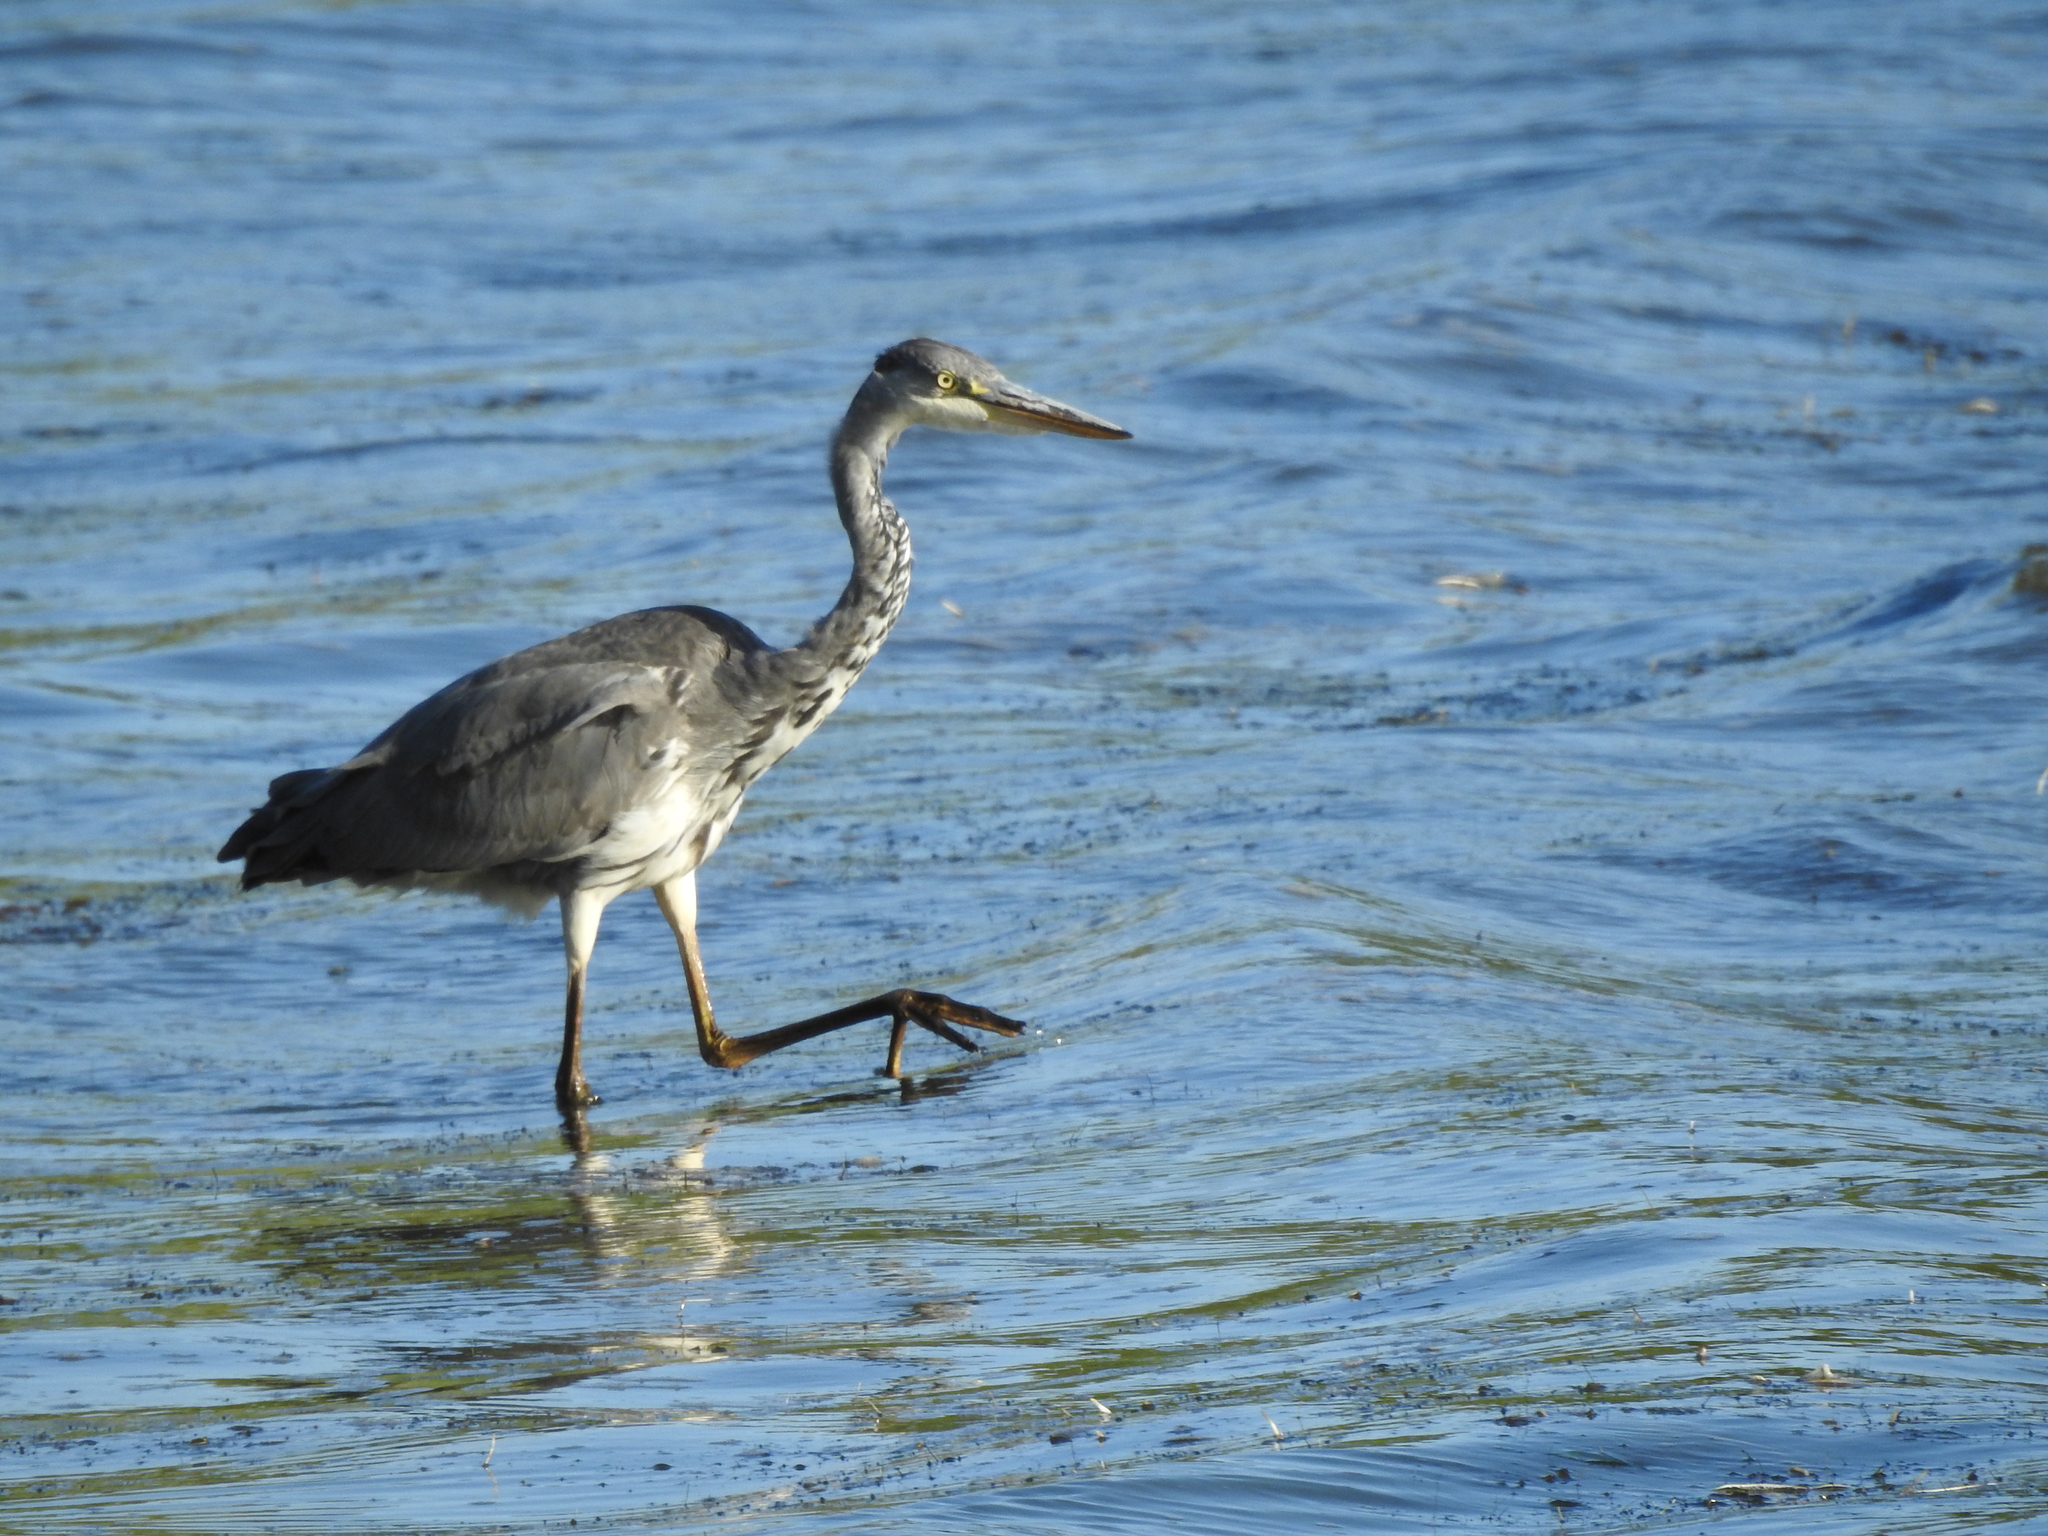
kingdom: Animalia
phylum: Chordata
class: Aves
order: Pelecaniformes
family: Ardeidae
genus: Ardea
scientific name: Ardea cinerea
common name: Grey heron
